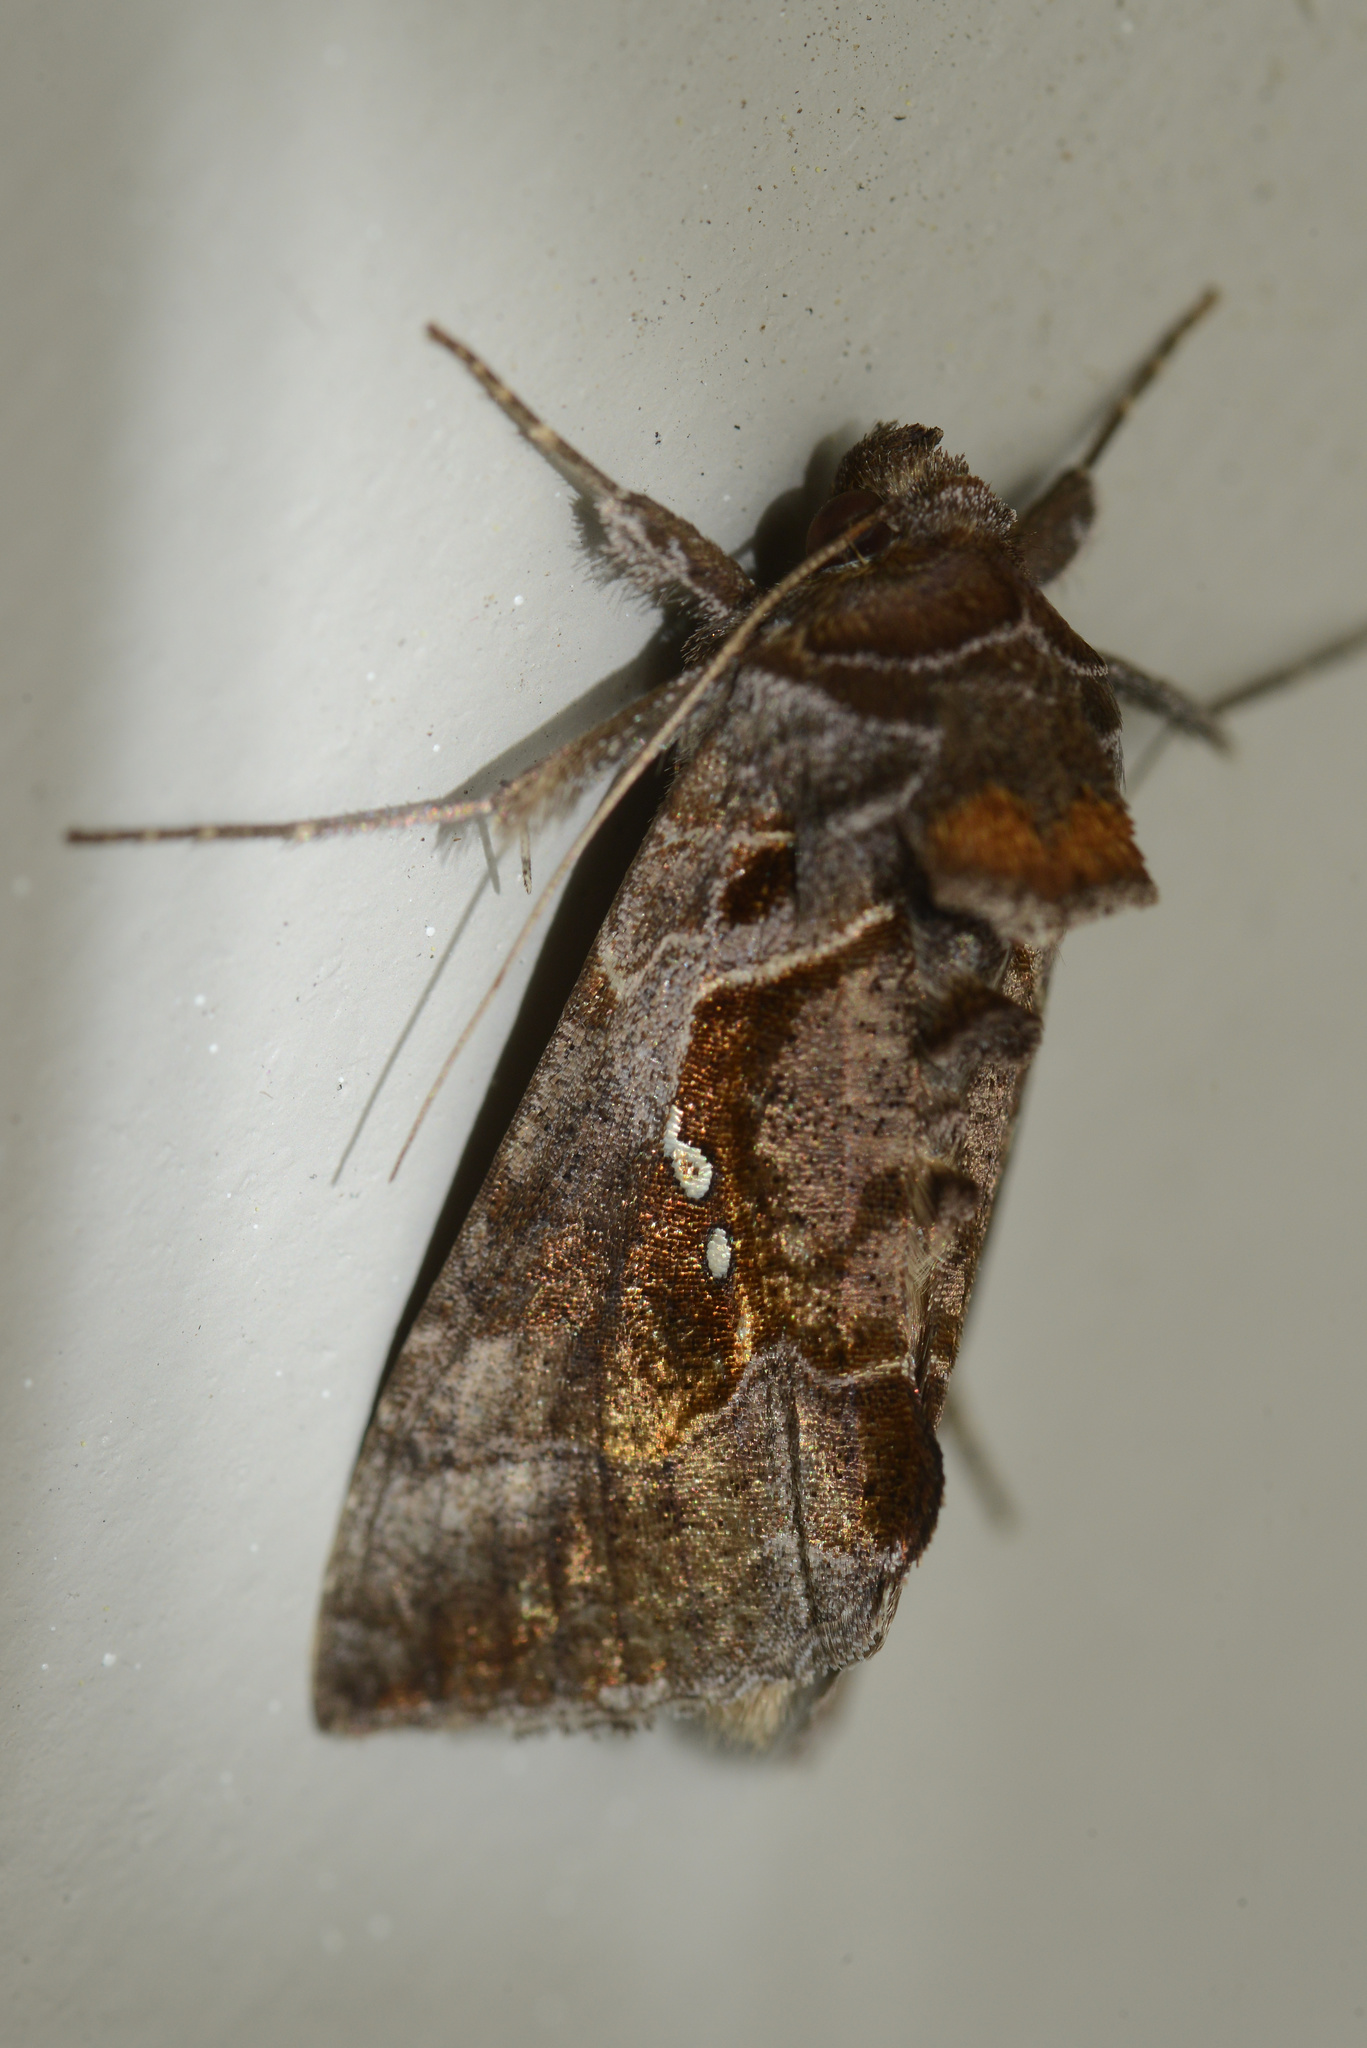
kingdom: Animalia
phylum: Arthropoda
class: Insecta
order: Lepidoptera
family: Noctuidae
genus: Chrysodeixis
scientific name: Chrysodeixis eriosoma
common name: Green garden looper
